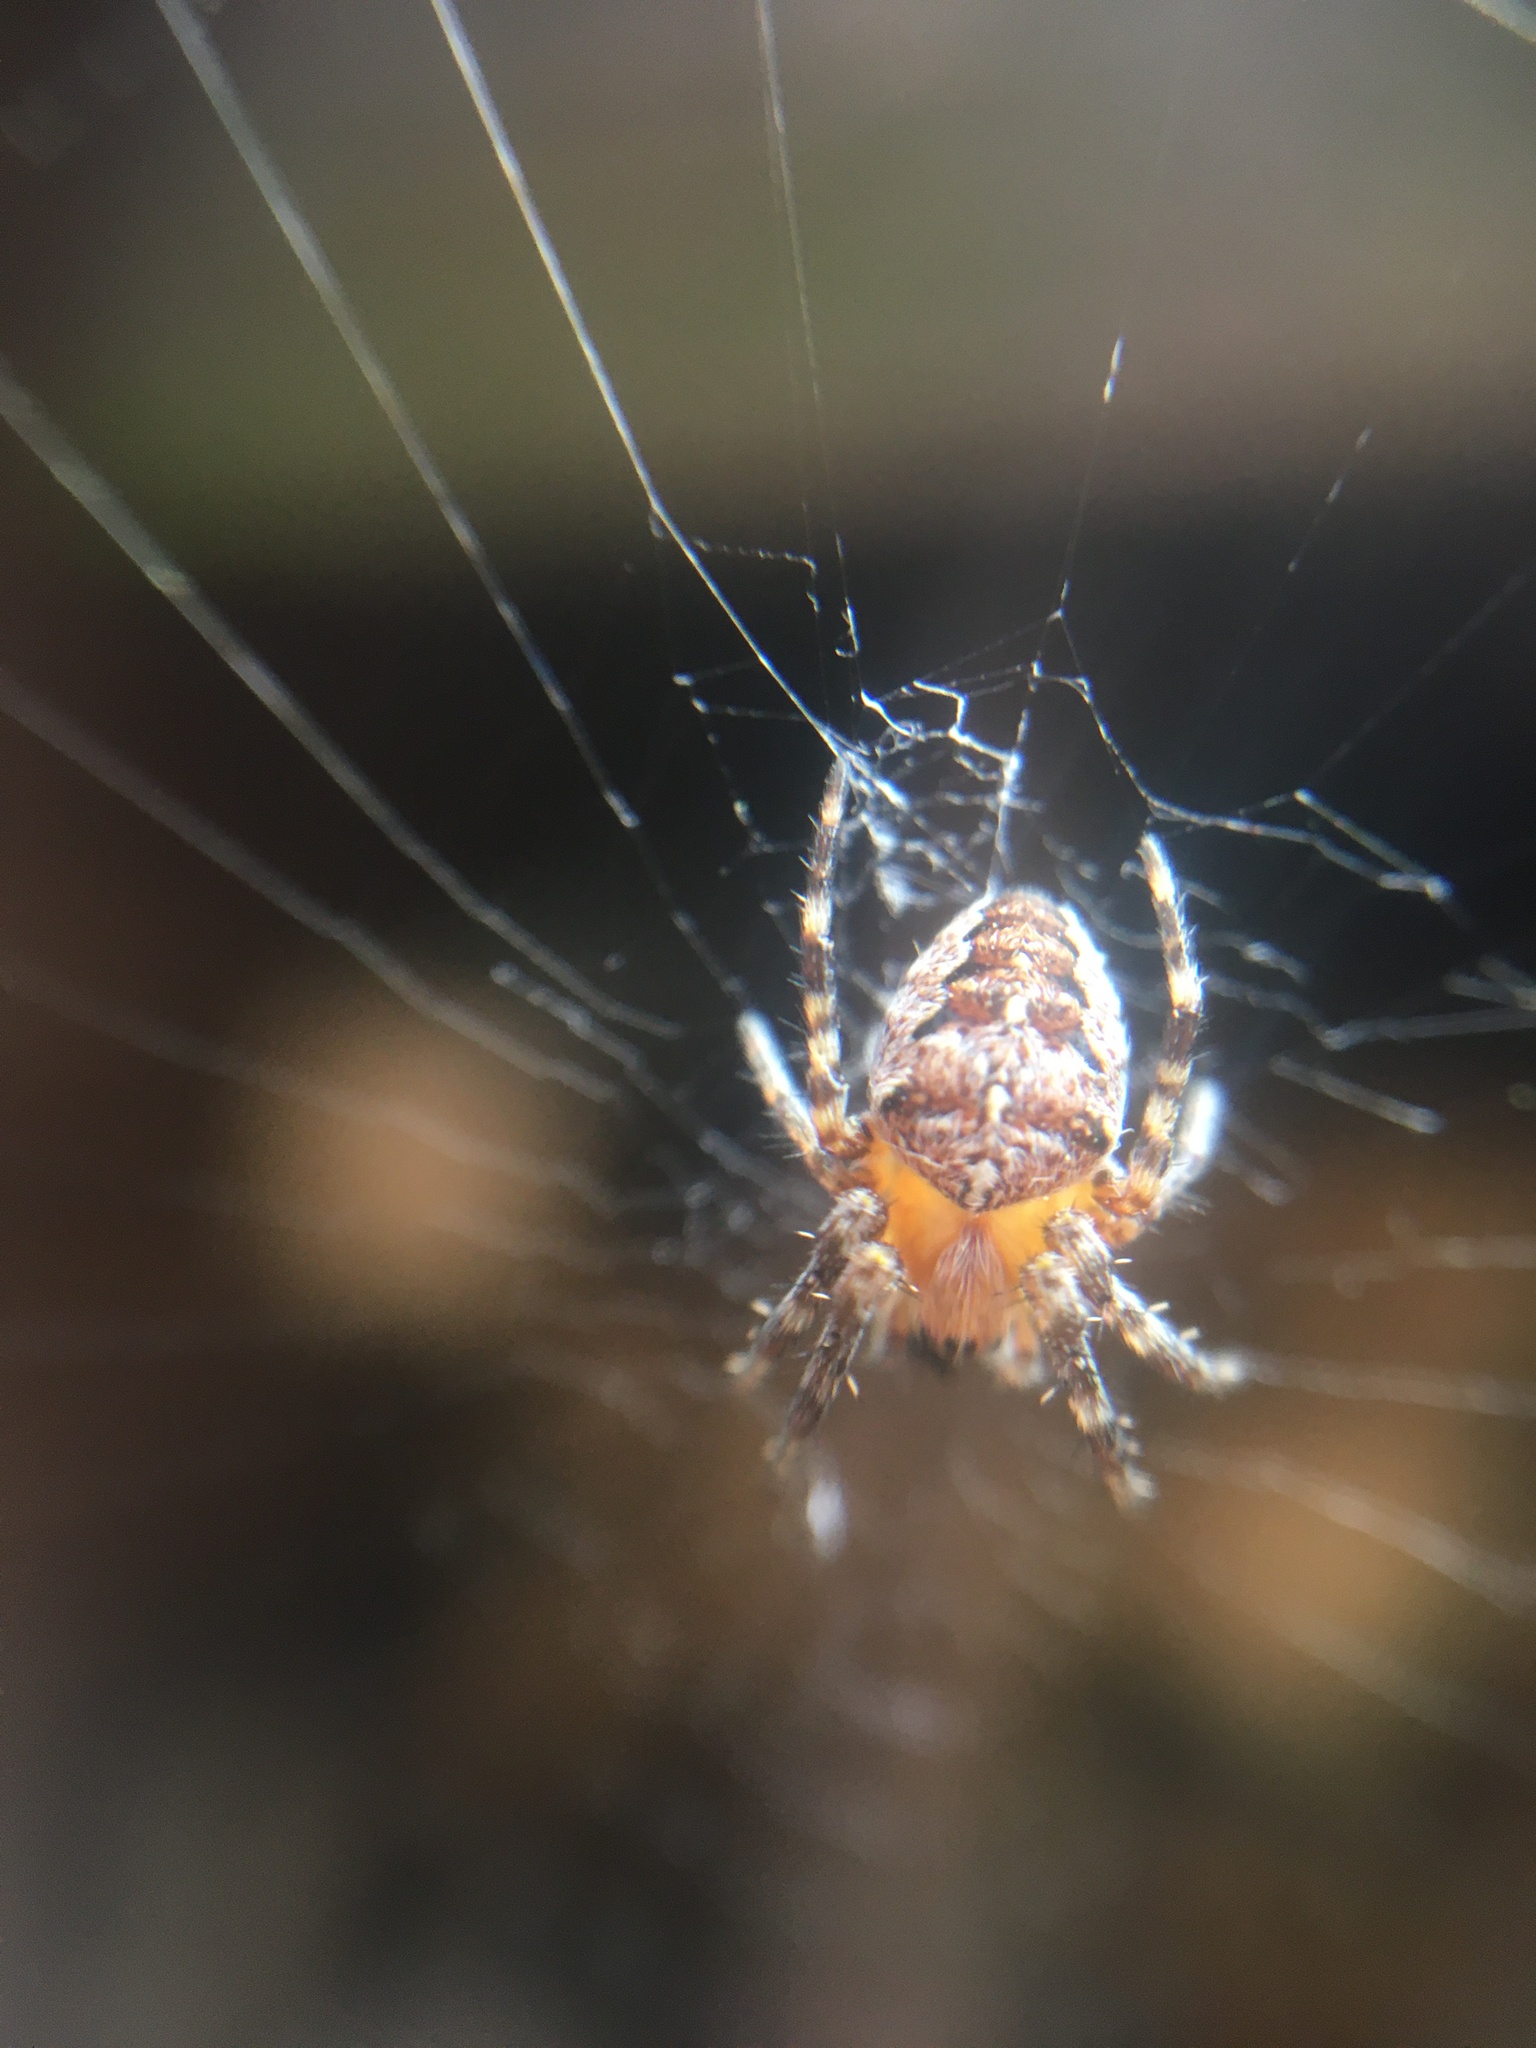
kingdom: Animalia
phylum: Arthropoda
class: Arachnida
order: Araneae
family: Araneidae
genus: Araneus
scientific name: Araneus diadematus
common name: Cross orbweaver
